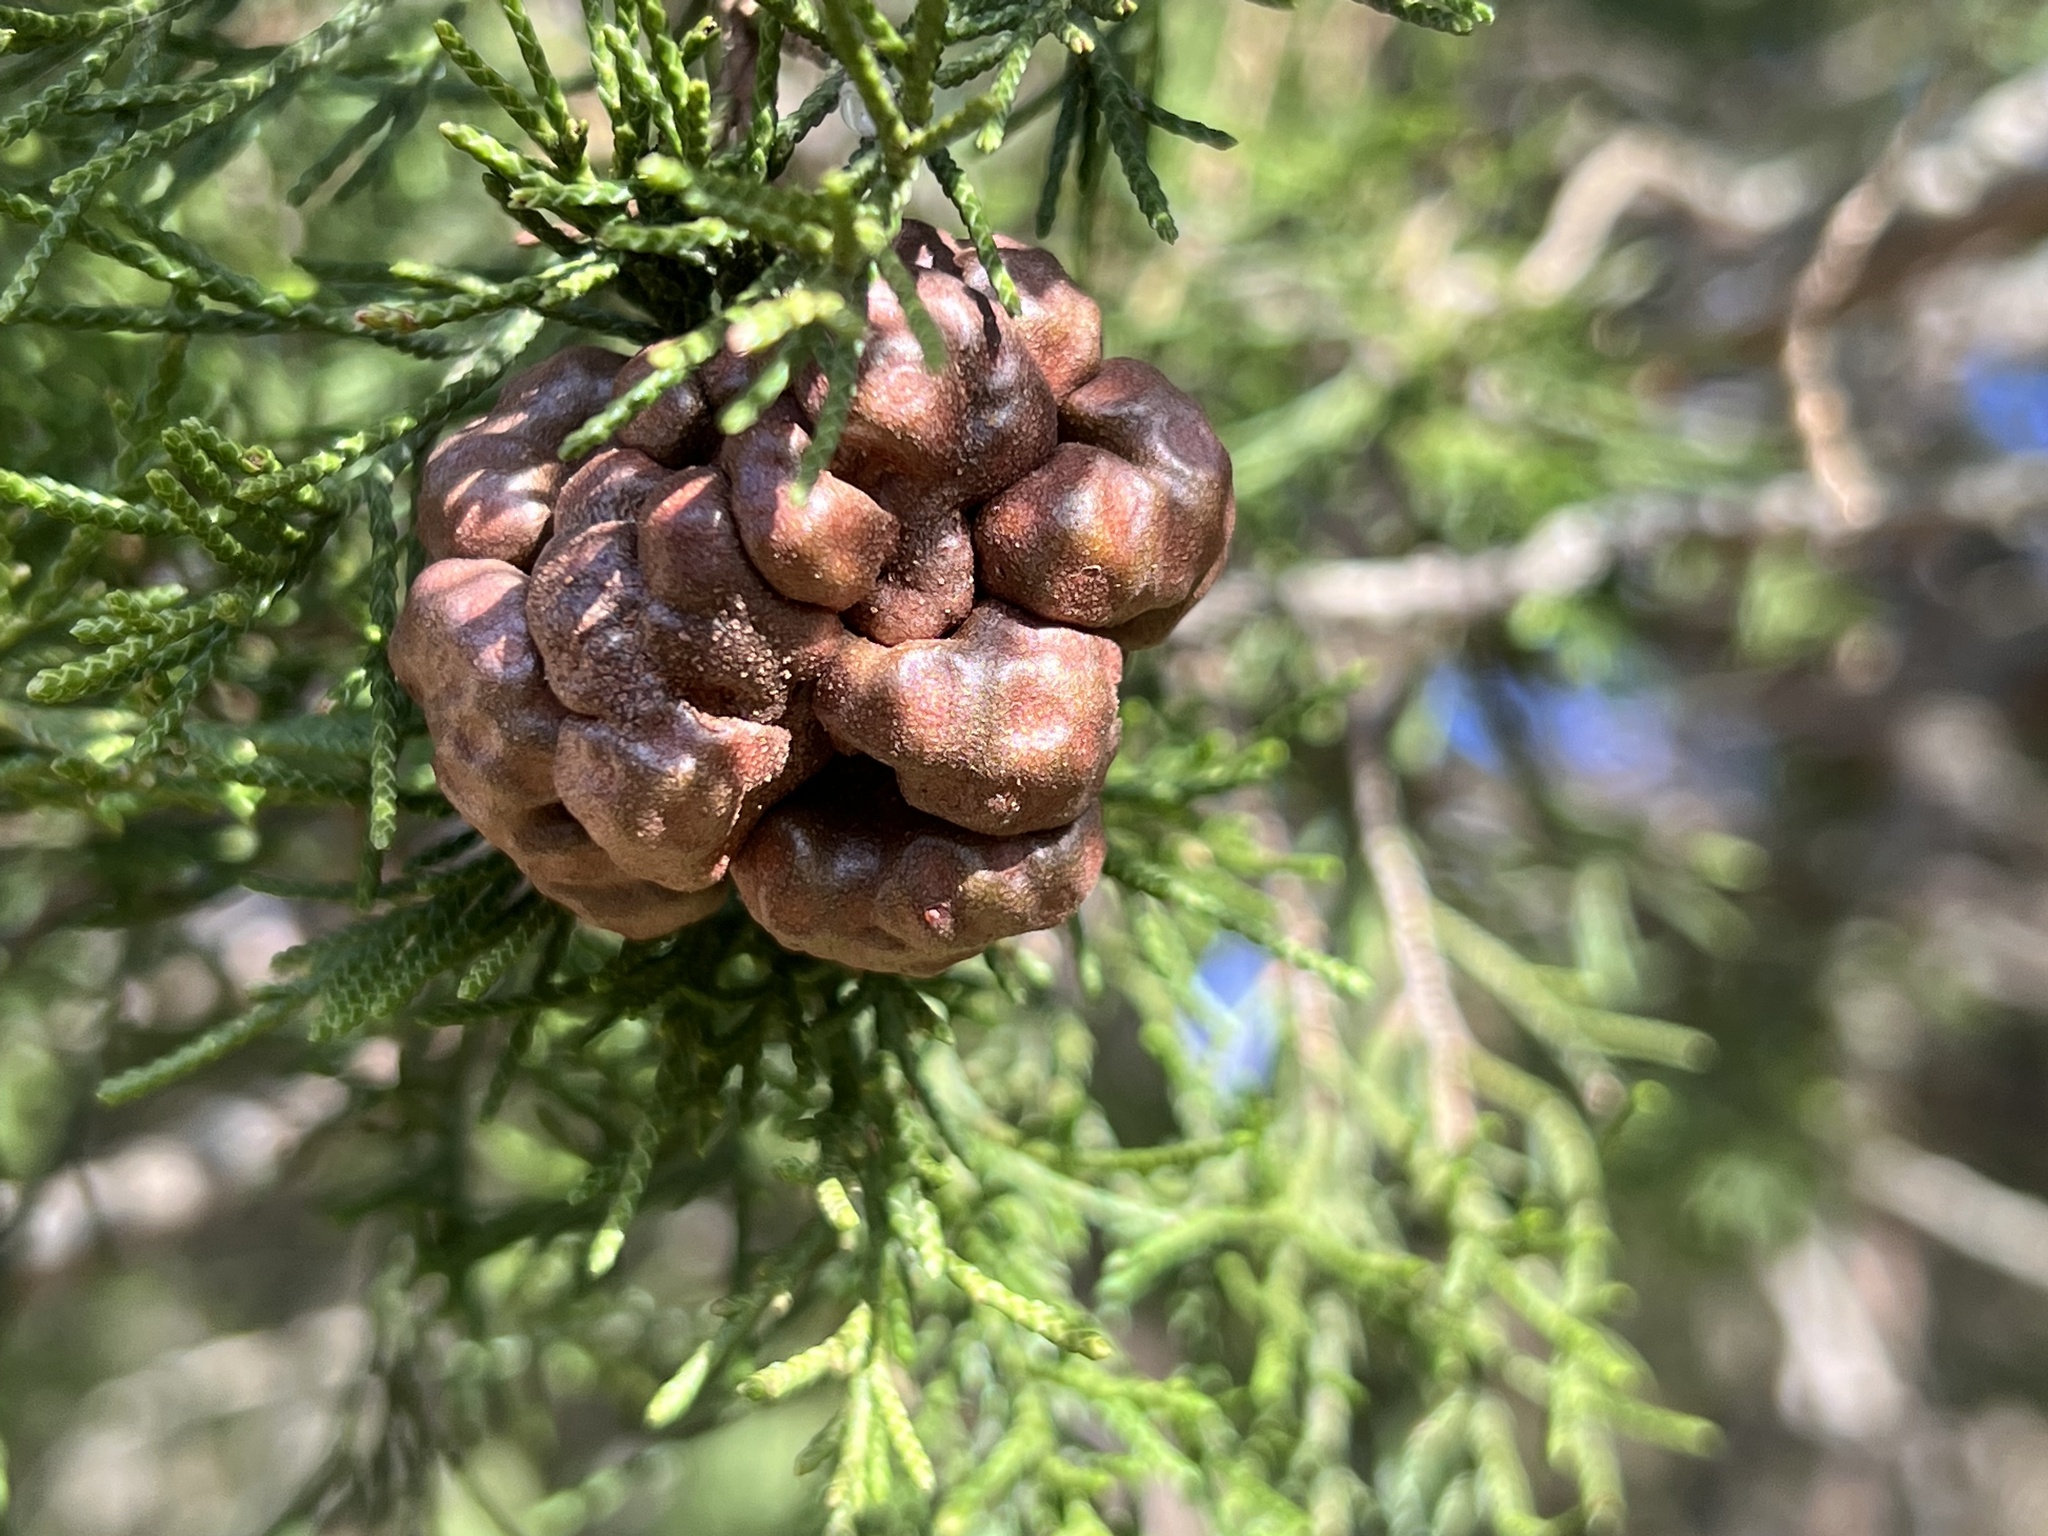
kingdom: Fungi
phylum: Basidiomycota
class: Pucciniomycetes
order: Pucciniales
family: Gymnosporangiaceae
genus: Gymnosporangium
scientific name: Gymnosporangium juniperi-virginianae
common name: Juniper-apple rust
